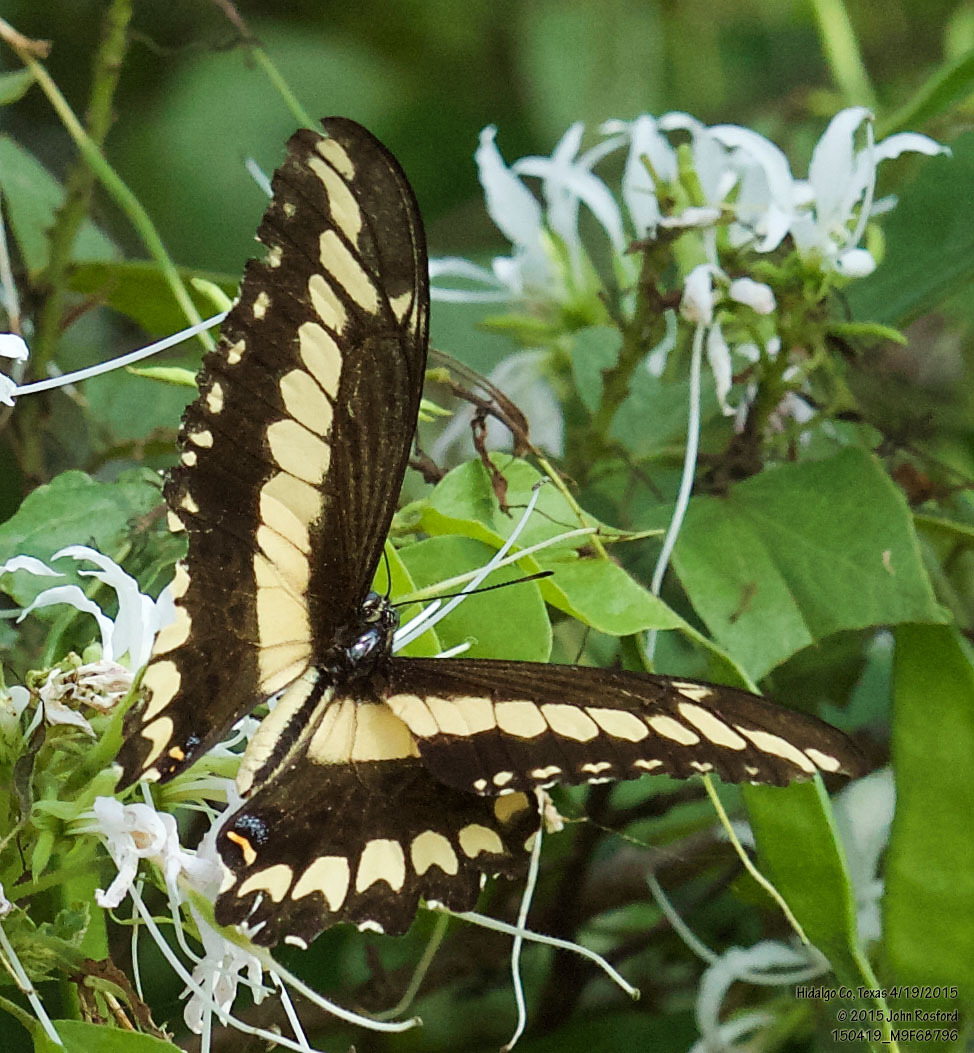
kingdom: Animalia
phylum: Arthropoda
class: Insecta
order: Lepidoptera
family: Papilionidae
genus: Papilio
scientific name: Papilio ornythion
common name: Ornythion swallowtail
